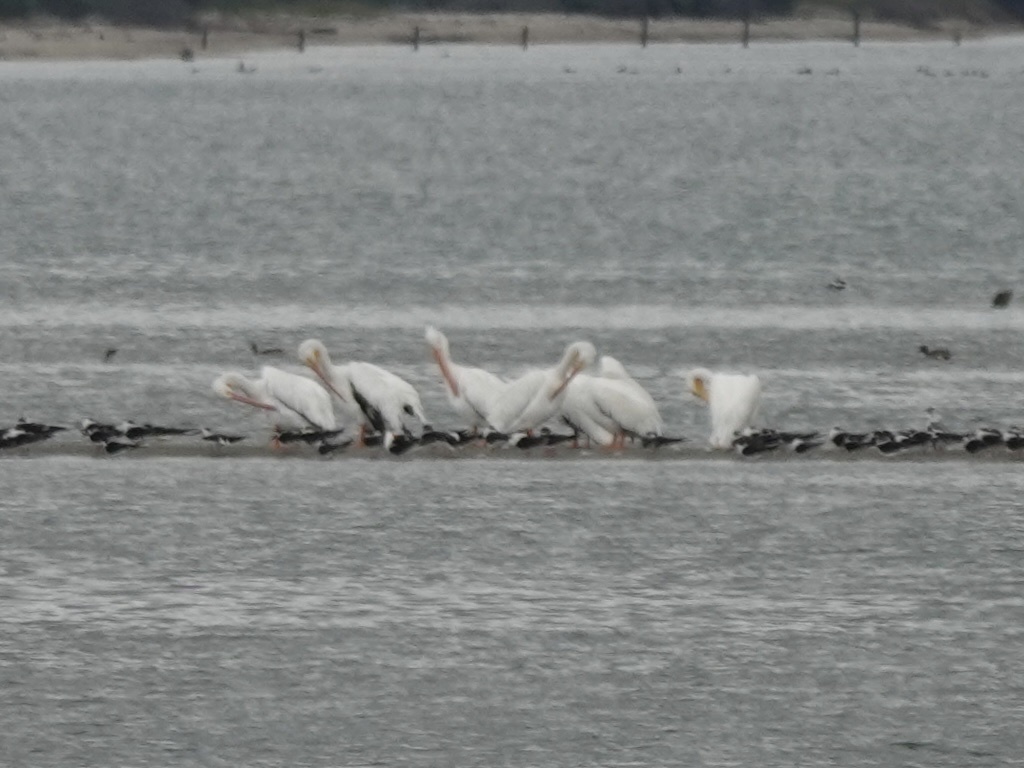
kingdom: Animalia
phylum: Chordata
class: Aves
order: Pelecaniformes
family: Pelecanidae
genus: Pelecanus
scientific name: Pelecanus erythrorhynchos
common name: American white pelican
